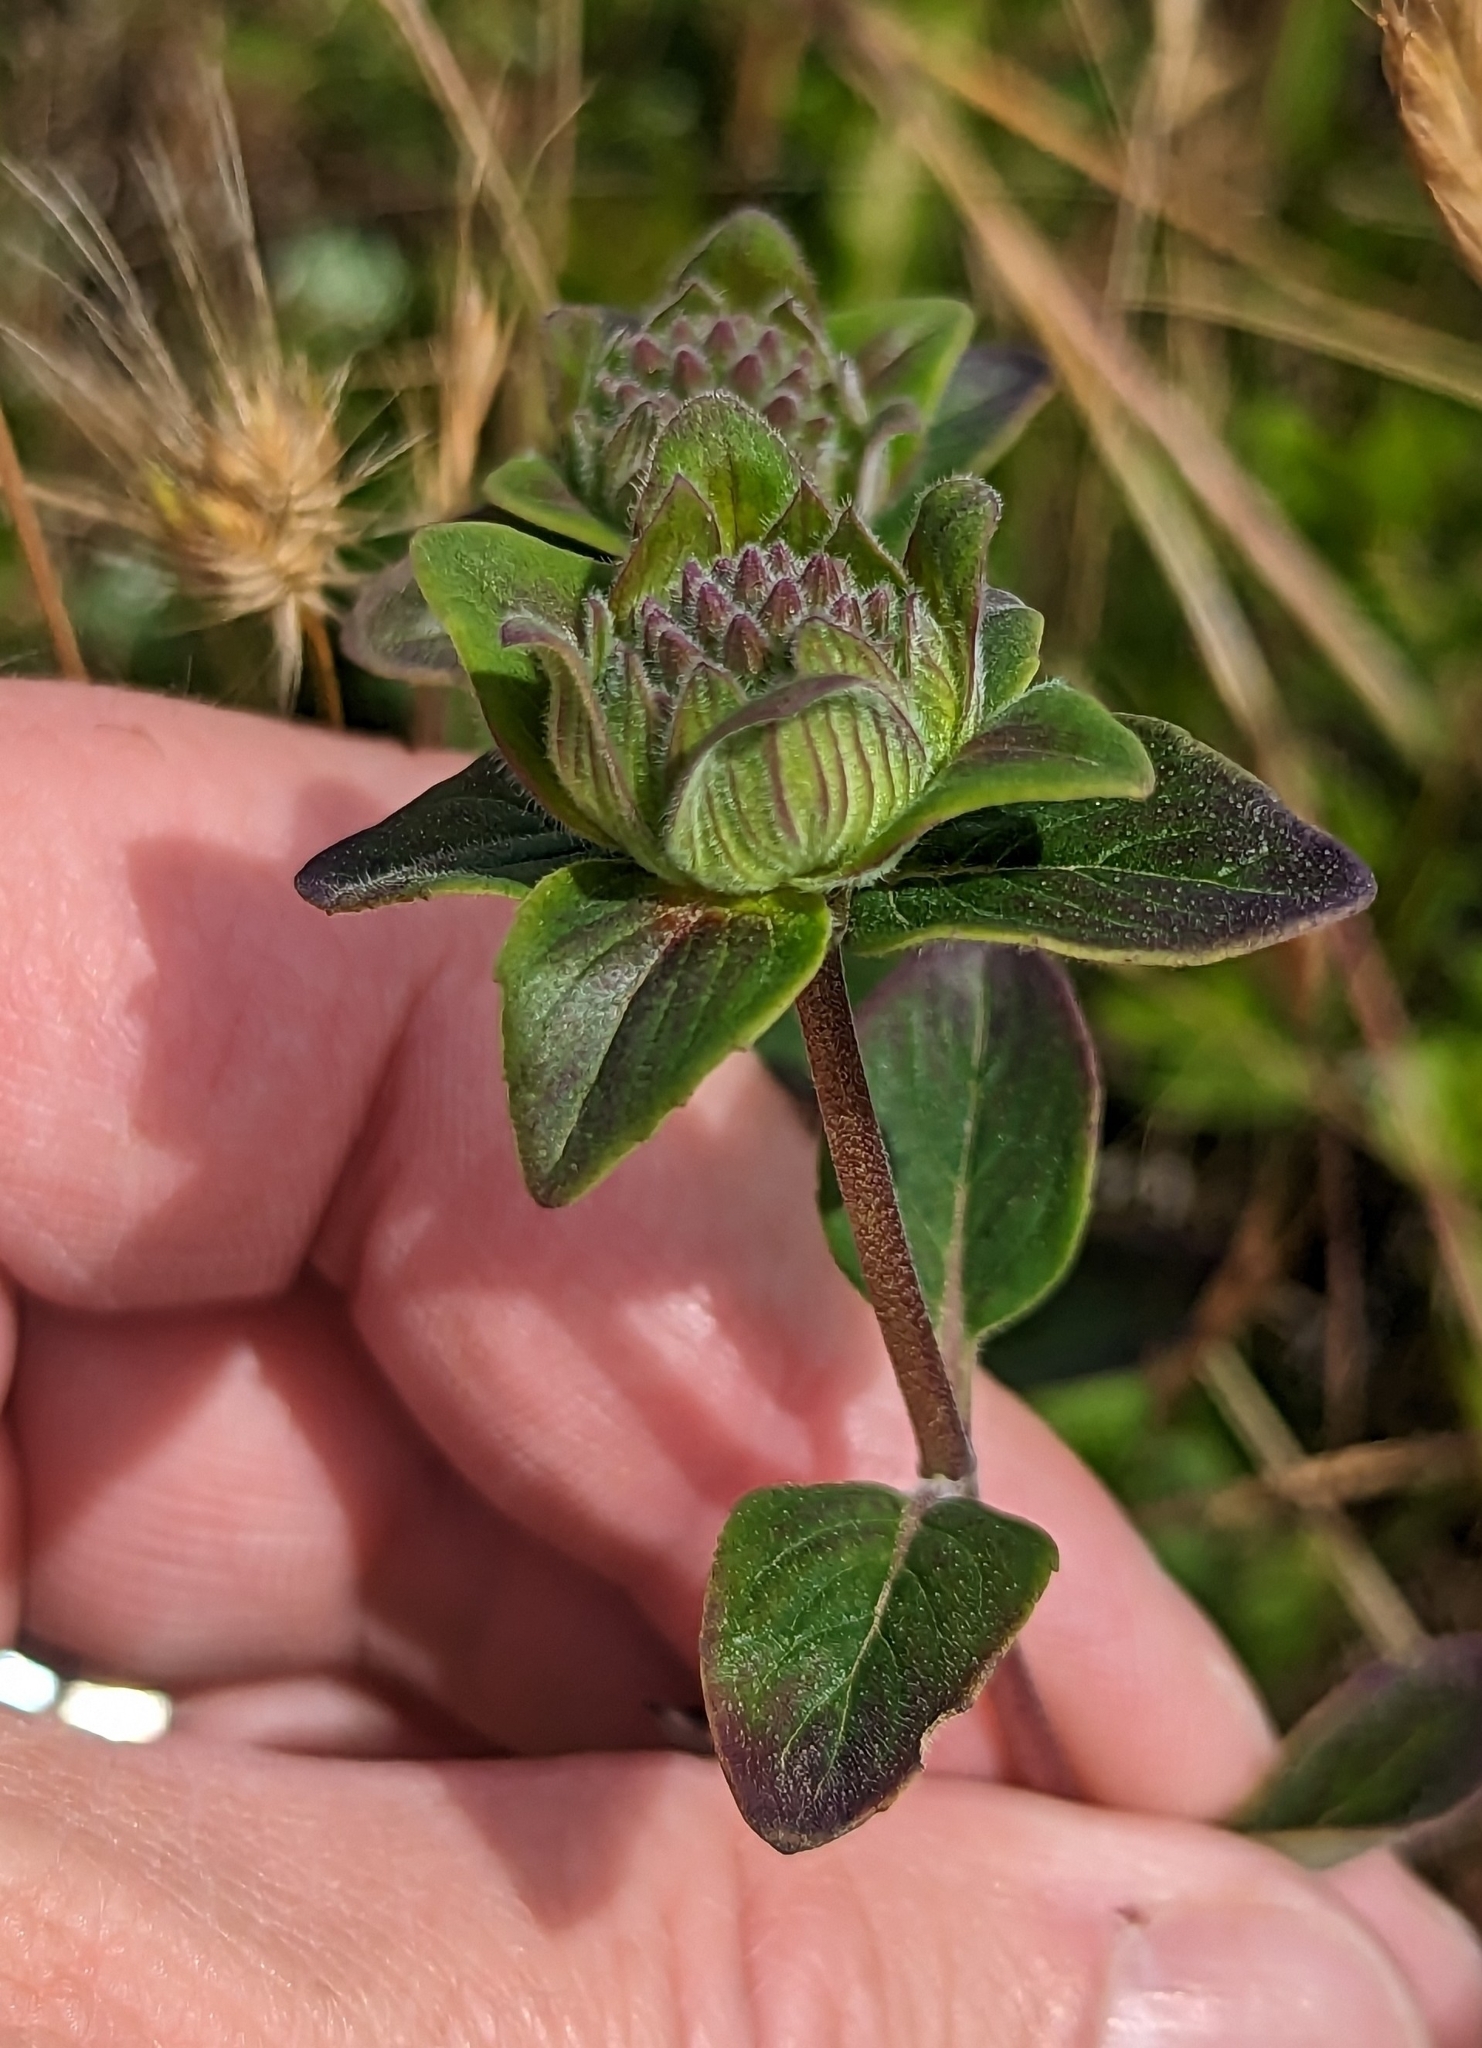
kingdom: Plantae
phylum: Tracheophyta
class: Magnoliopsida
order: Lamiales
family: Lamiaceae
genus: Monardella
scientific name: Monardella odoratissima
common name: Pacific monardella
